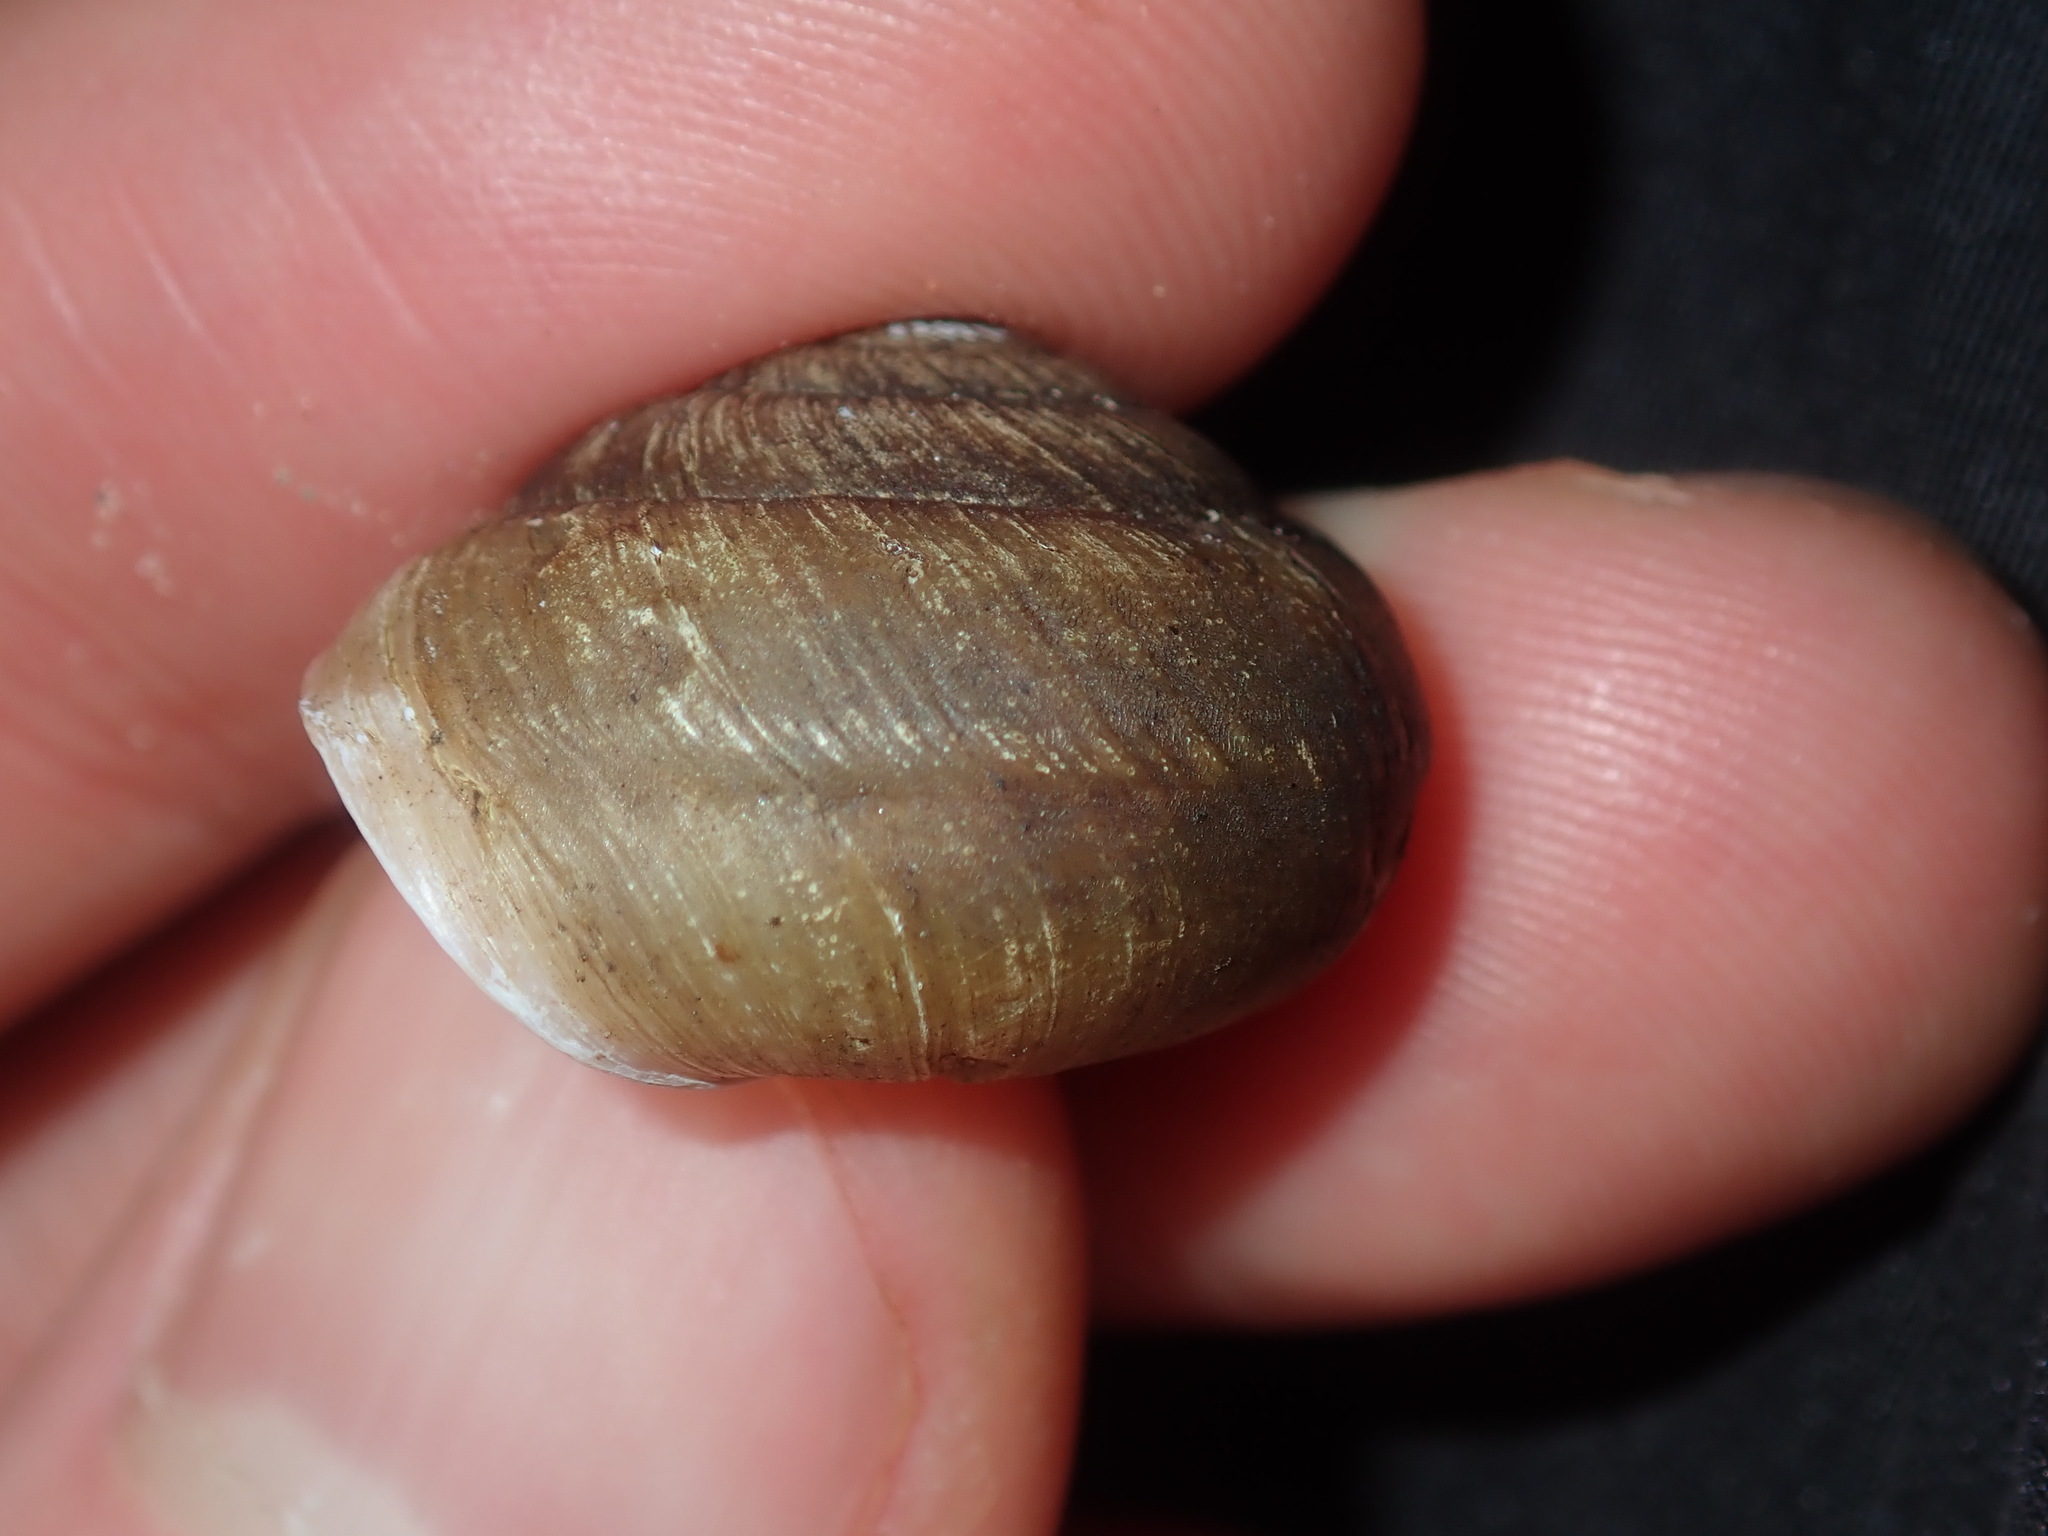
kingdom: Animalia
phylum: Mollusca
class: Gastropoda
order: Stylommatophora
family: Camaenidae
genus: Pommerhelix
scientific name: Pommerhelix mastersi
